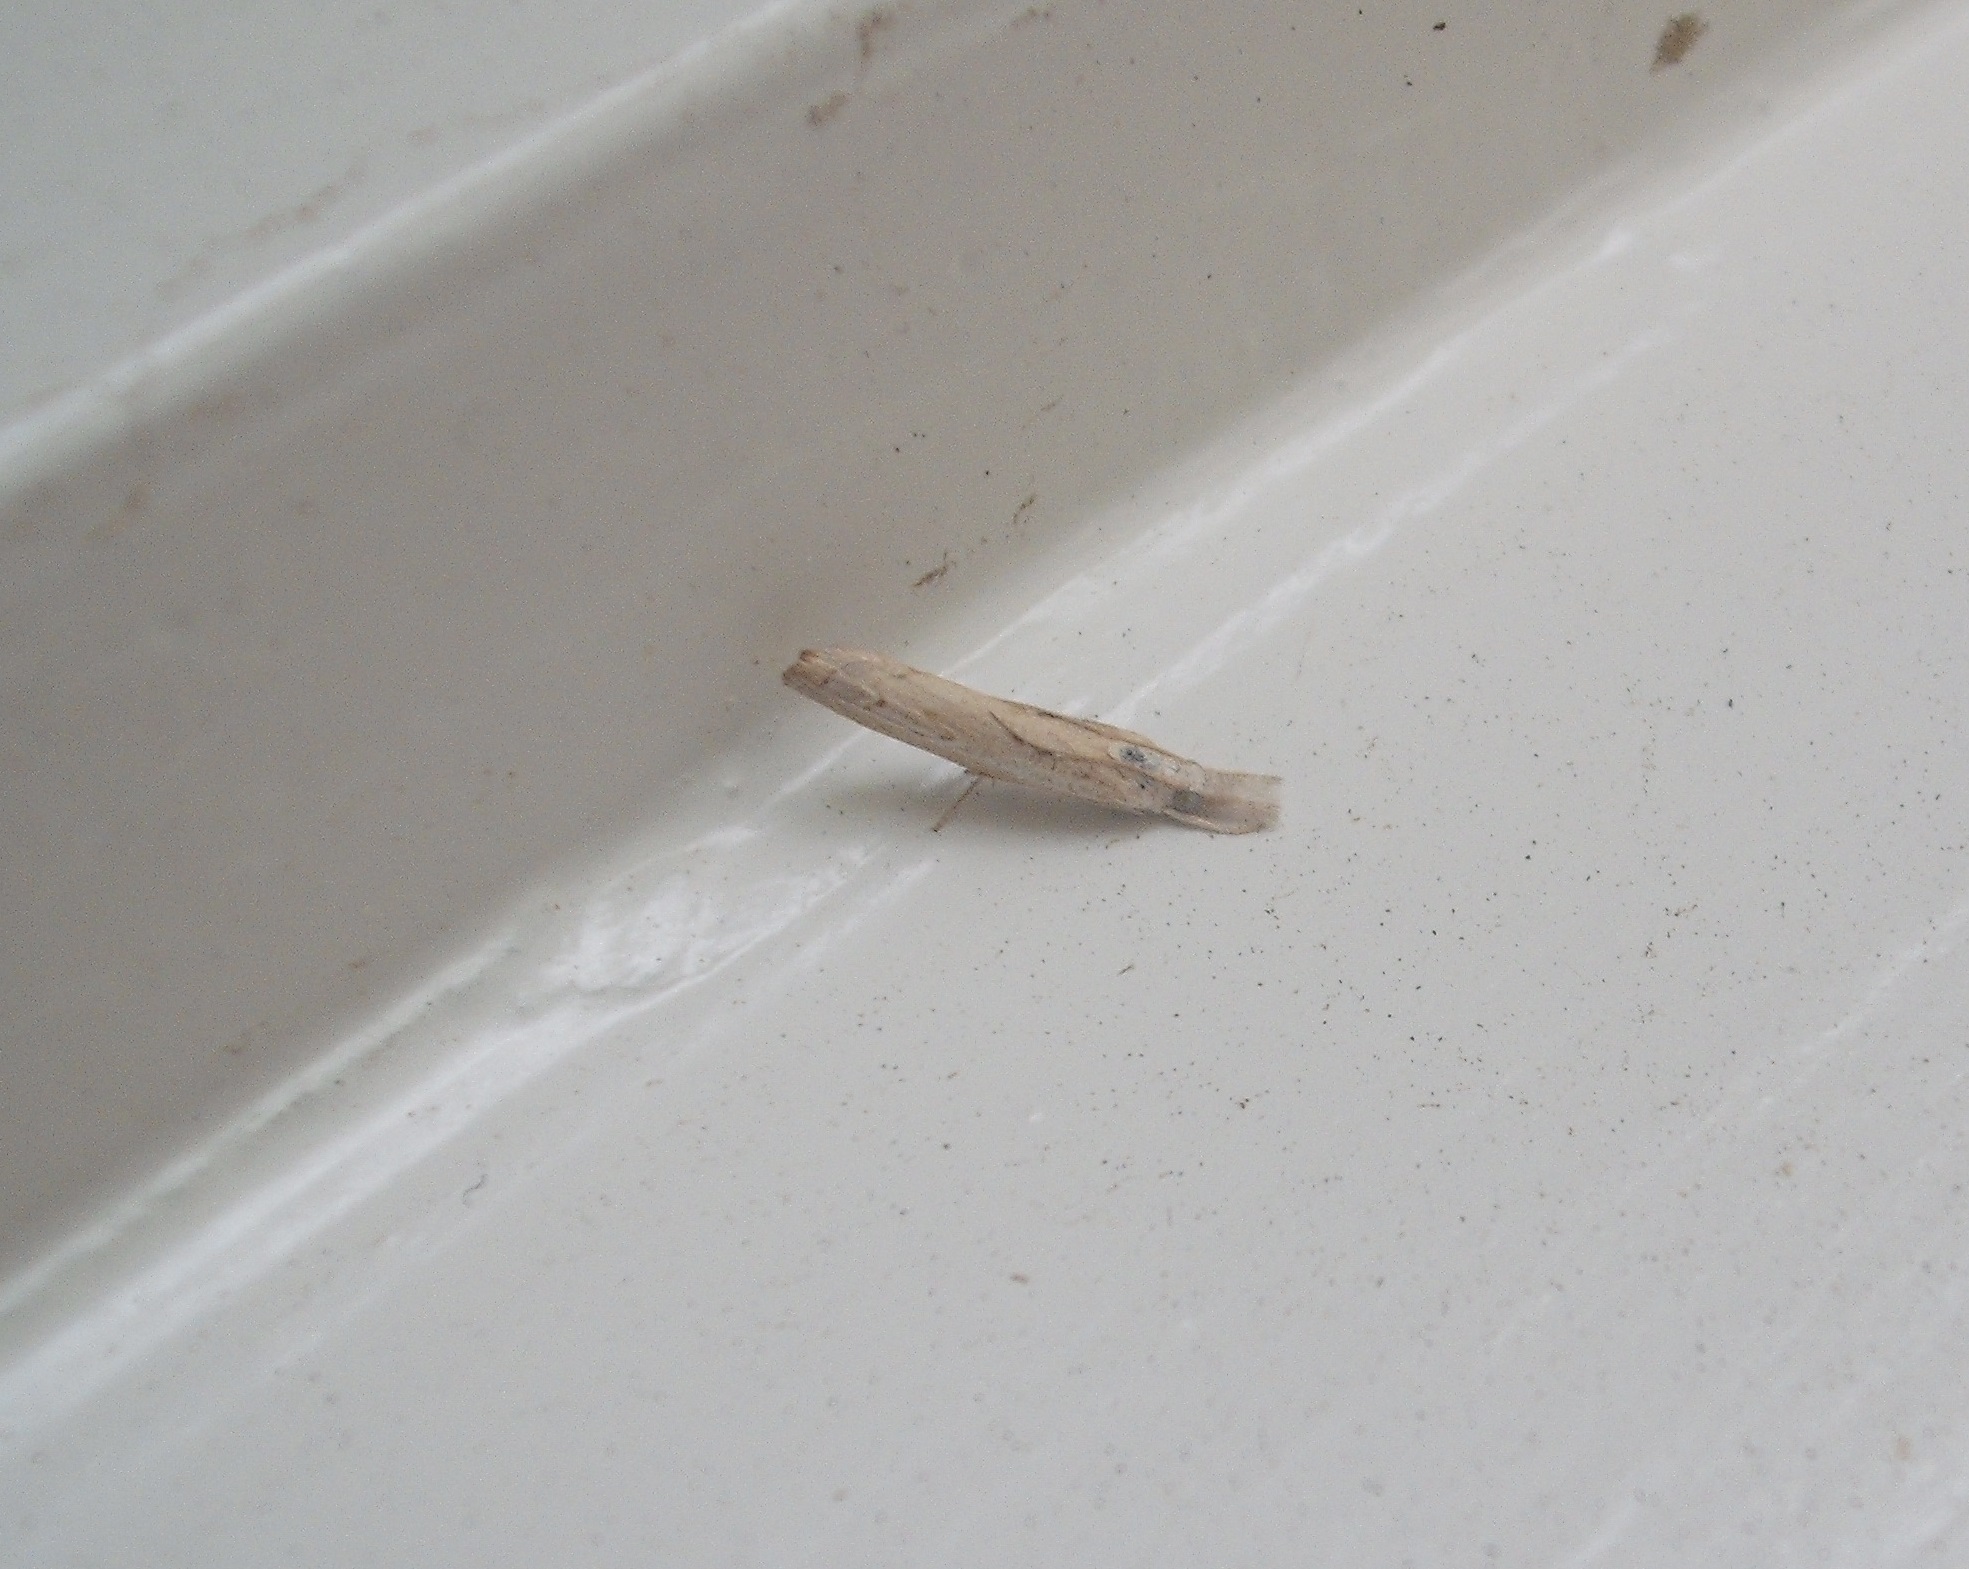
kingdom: Animalia
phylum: Arthropoda
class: Insecta
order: Lepidoptera
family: Crambidae
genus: Culladia
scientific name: Culladia cuneiferellus
